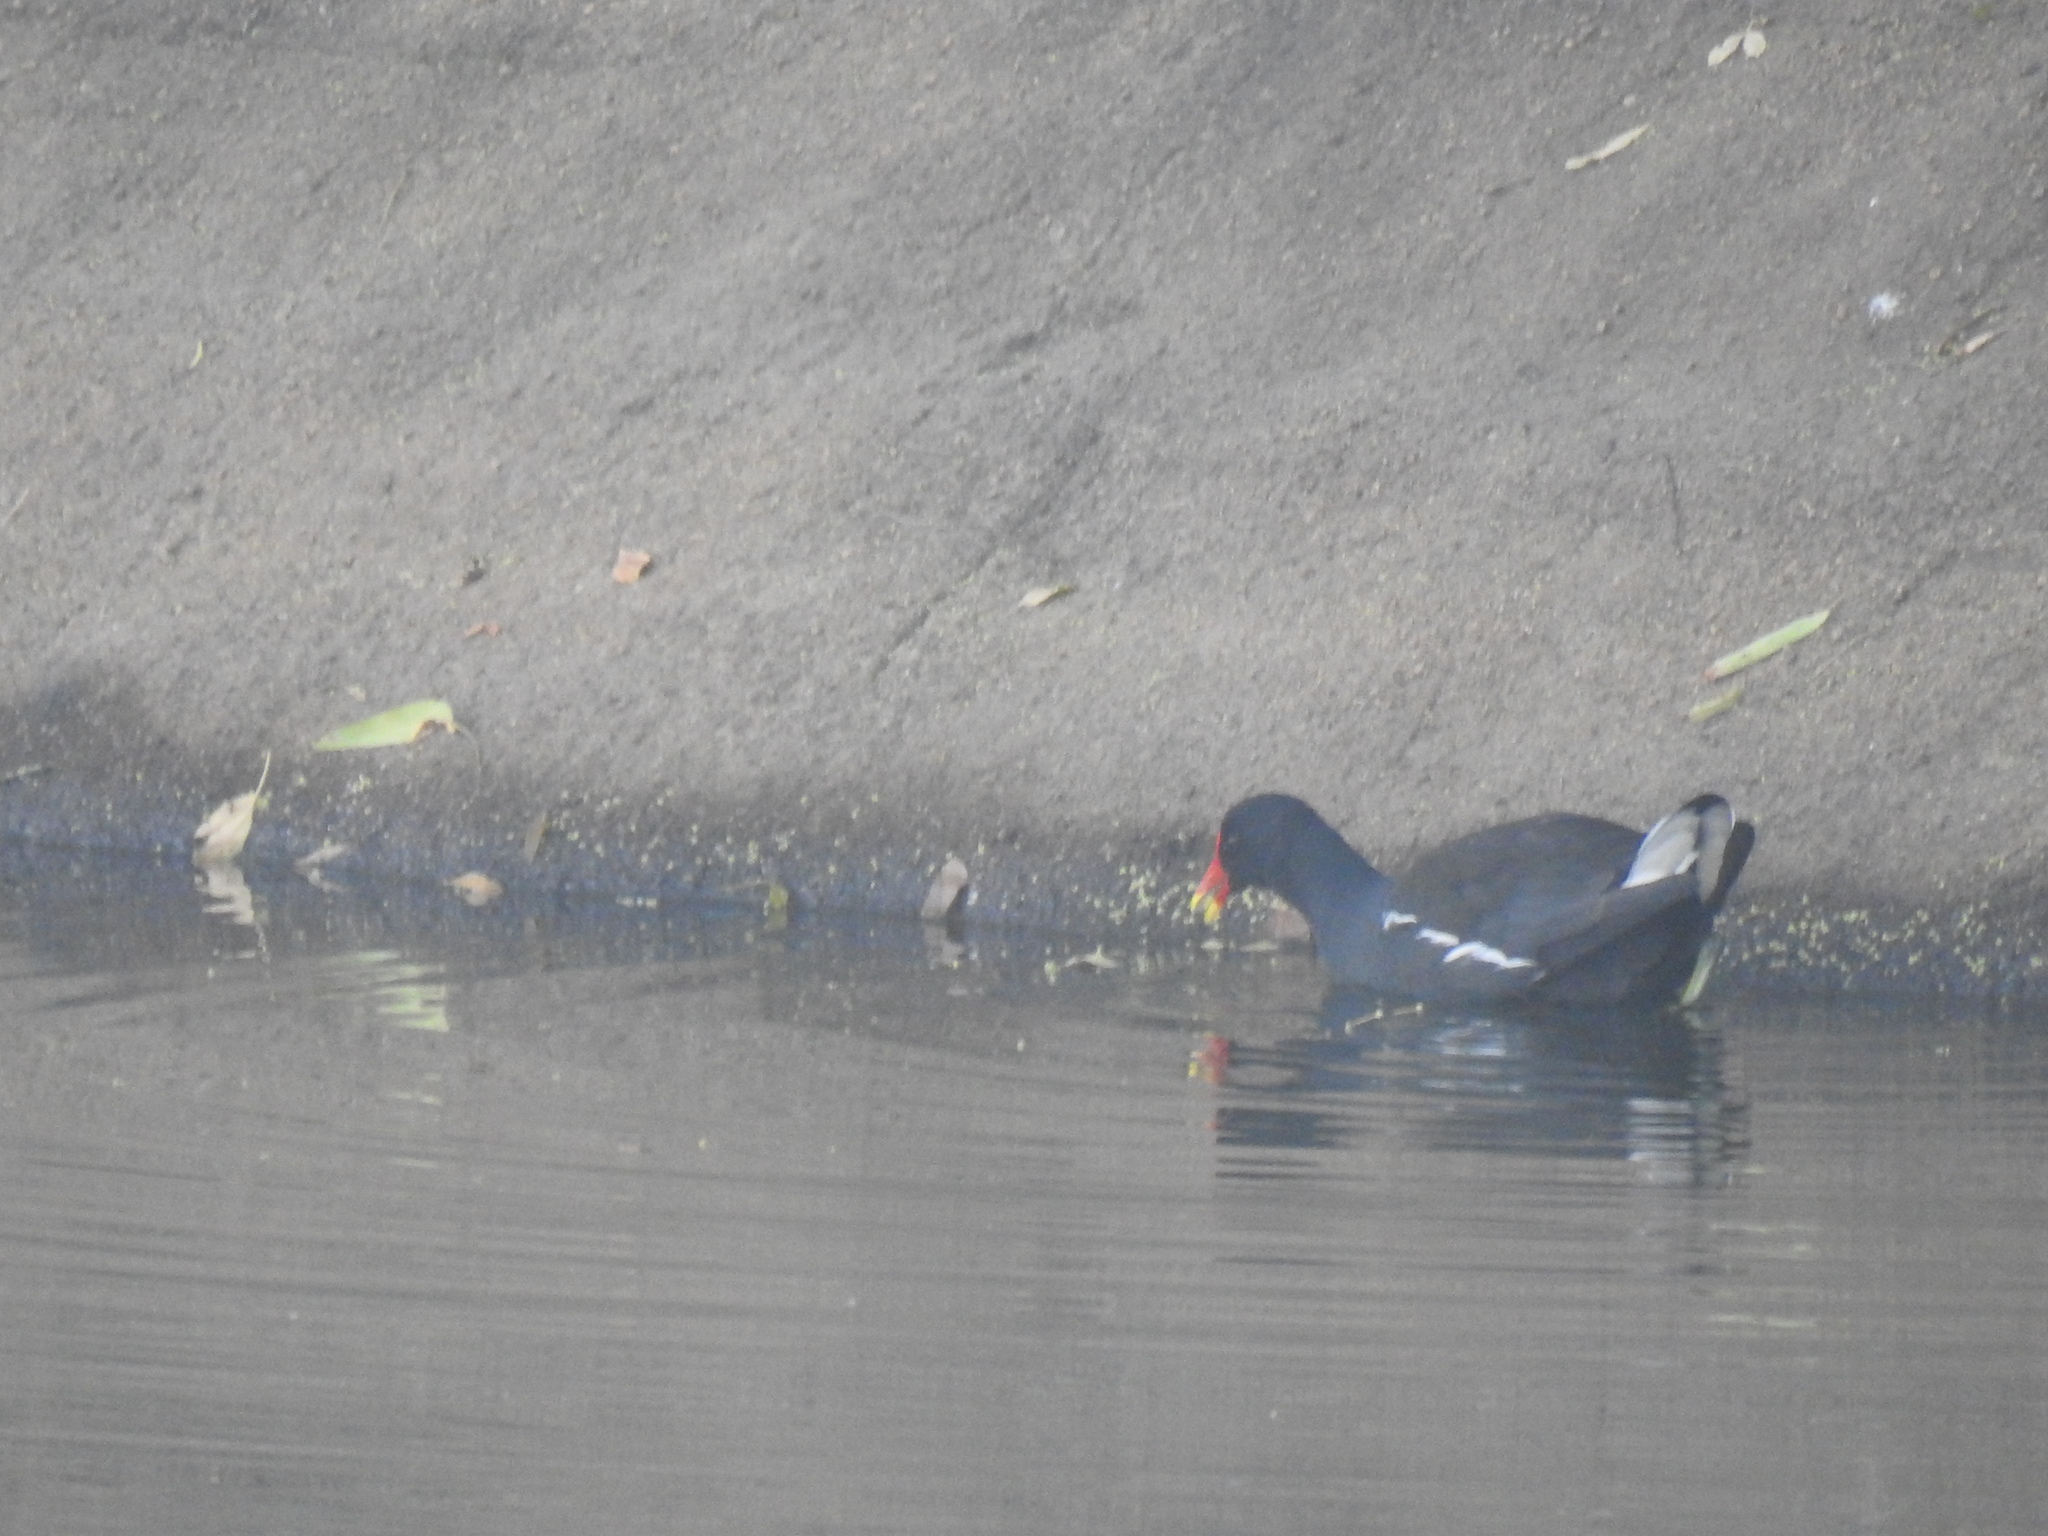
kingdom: Animalia
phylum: Chordata
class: Aves
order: Gruiformes
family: Rallidae
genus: Gallinula
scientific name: Gallinula chloropus
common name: Common moorhen
